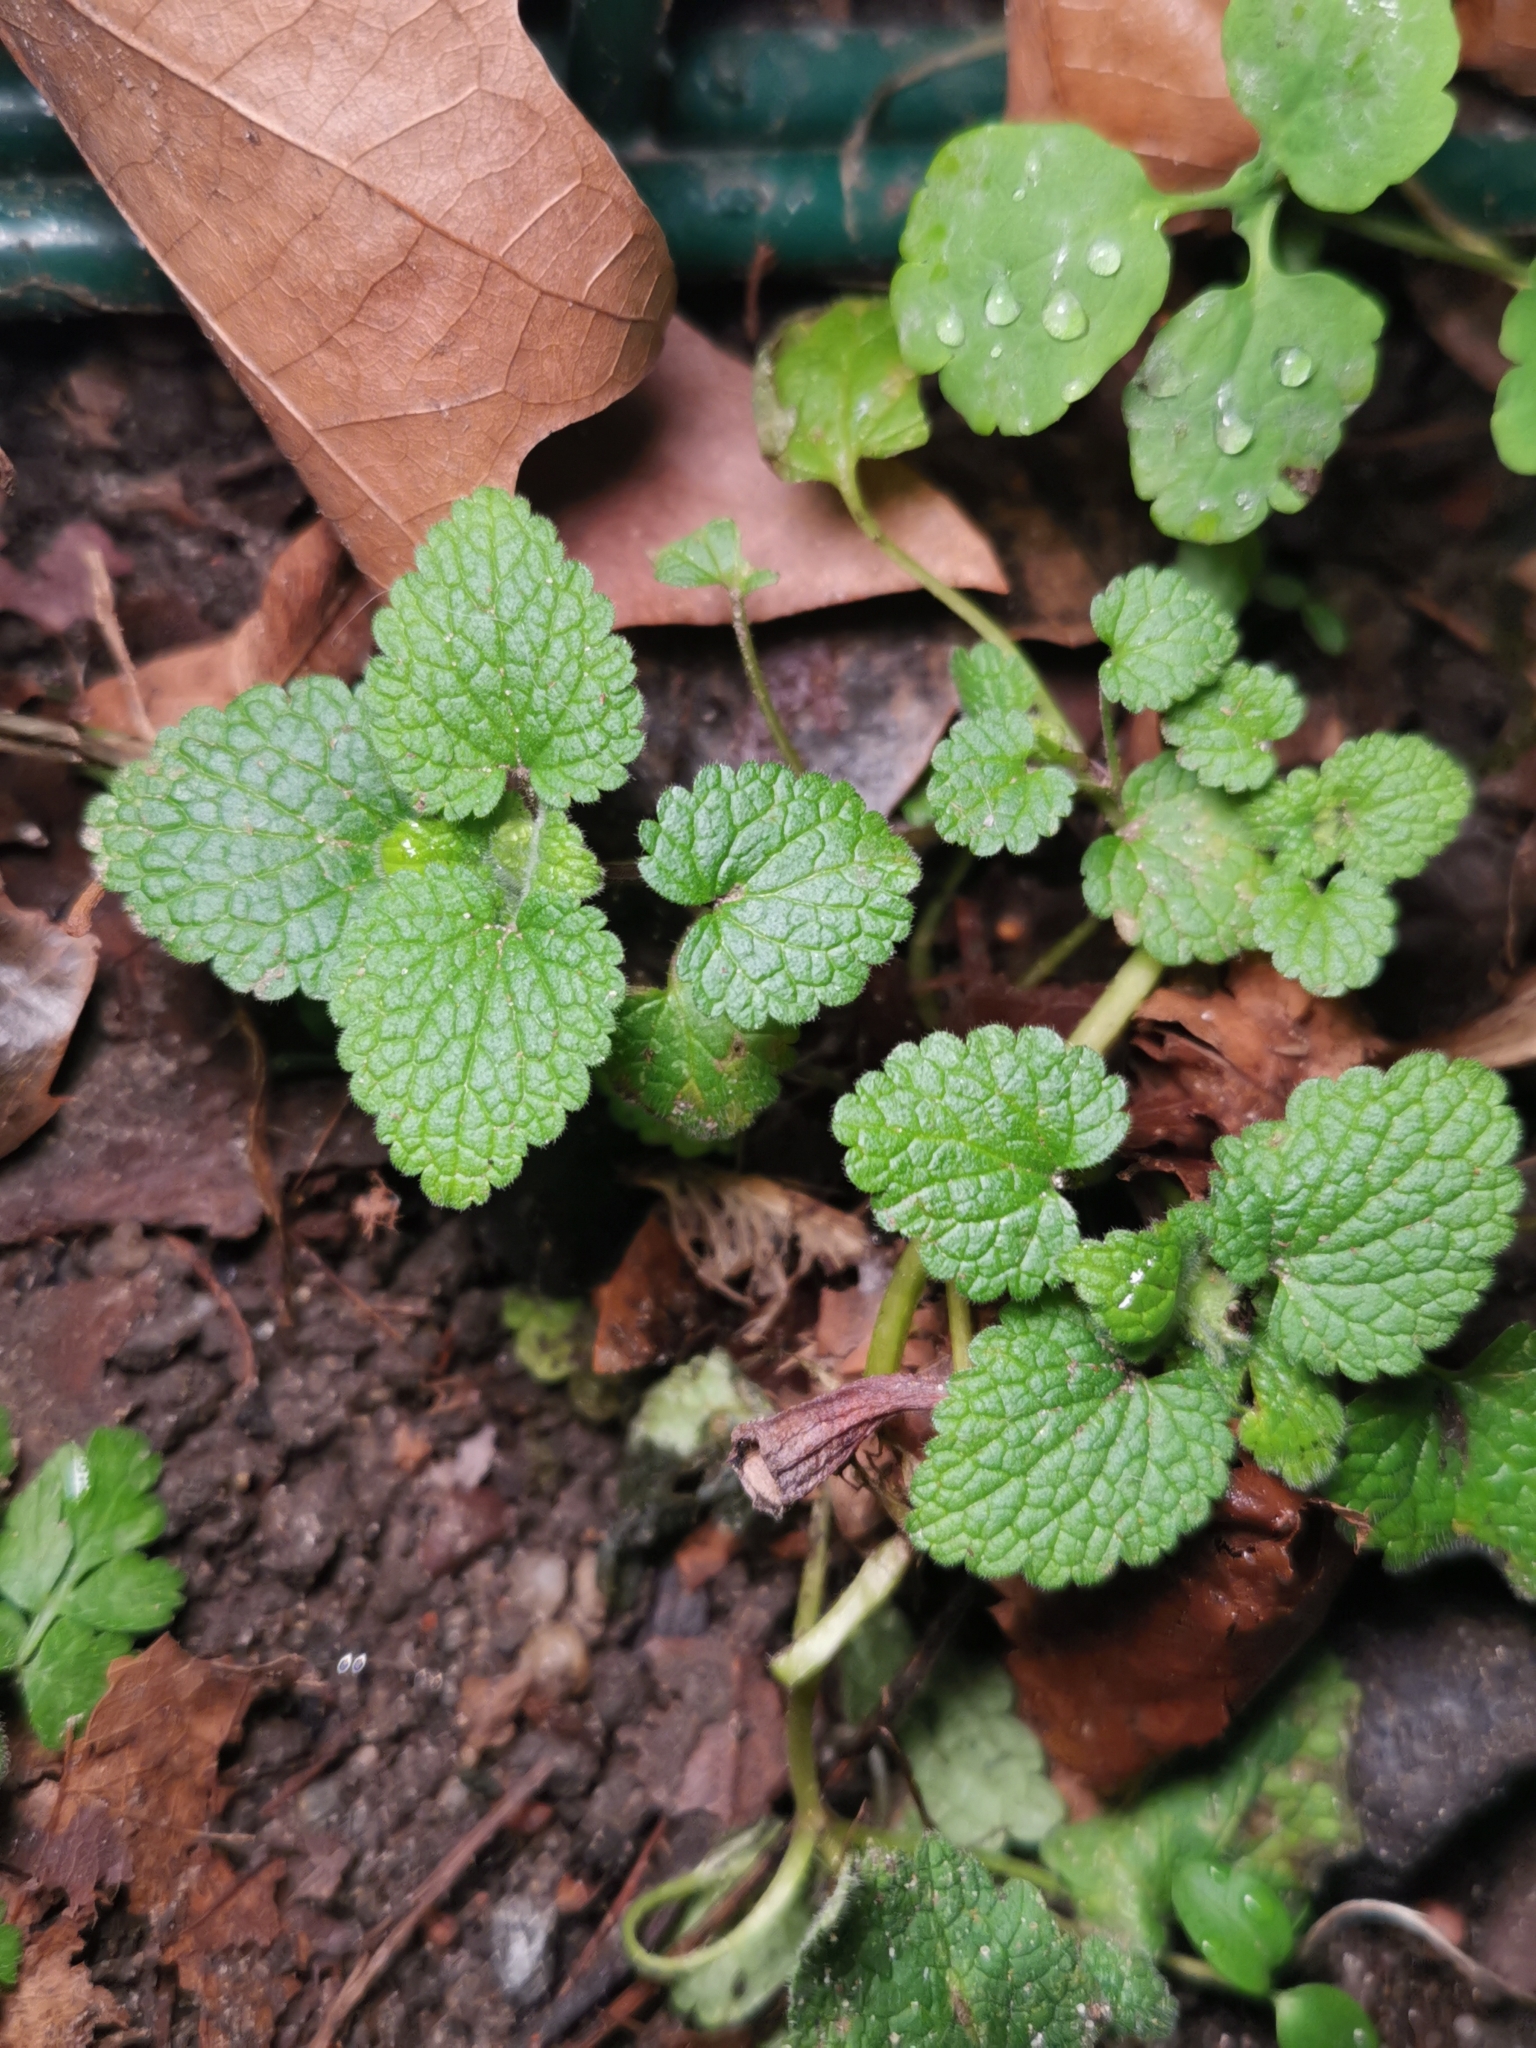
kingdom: Plantae
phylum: Tracheophyta
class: Magnoliopsida
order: Lamiales
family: Lamiaceae
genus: Lamium
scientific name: Lamium purpureum
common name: Red dead-nettle
